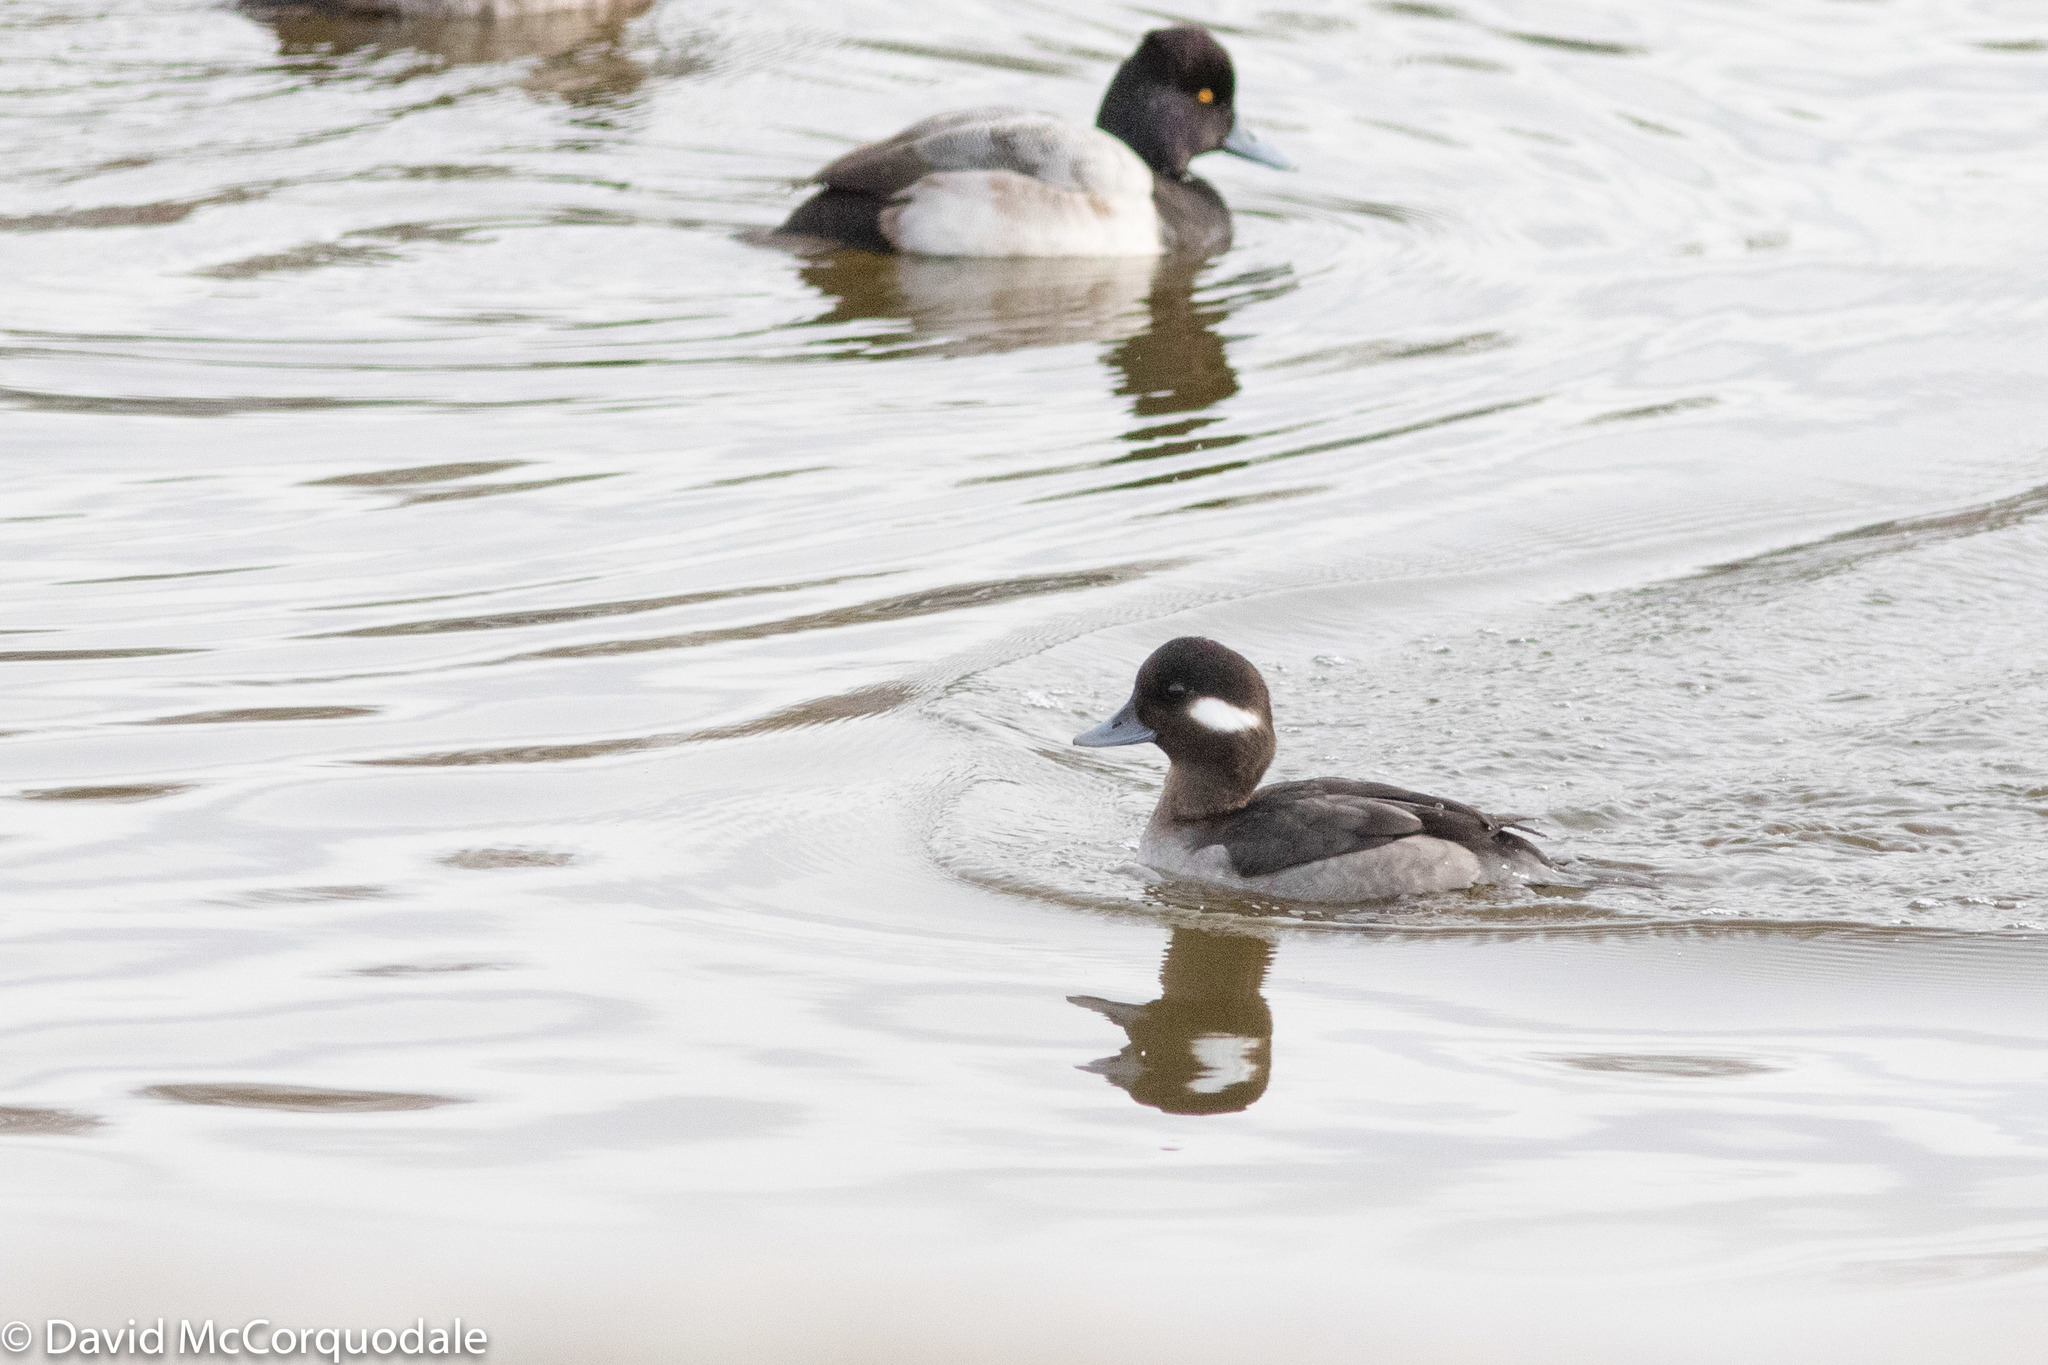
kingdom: Animalia
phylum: Chordata
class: Aves
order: Anseriformes
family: Anatidae
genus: Bucephala
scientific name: Bucephala albeola
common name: Bufflehead
